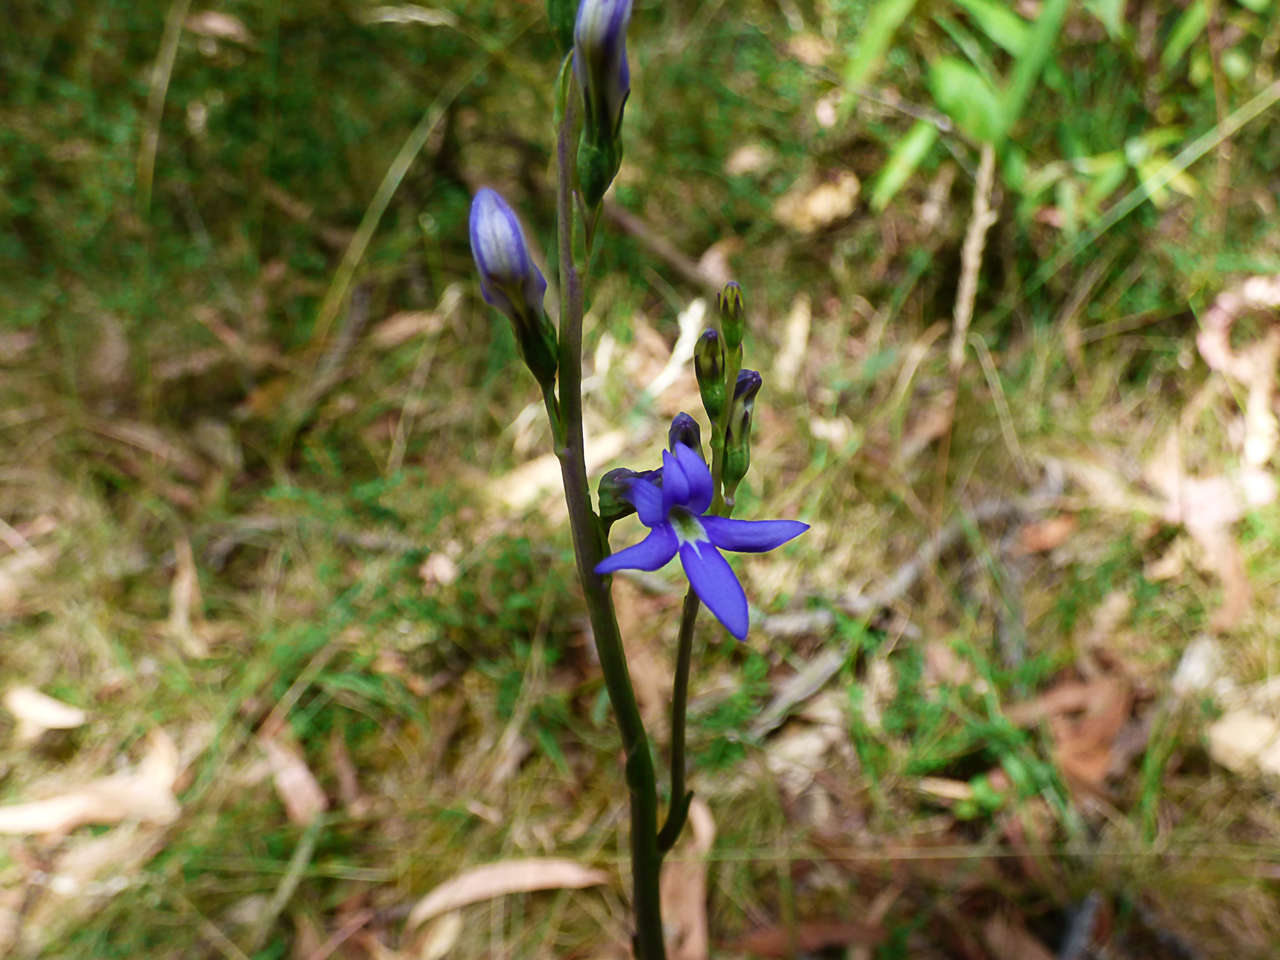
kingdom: Plantae
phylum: Tracheophyta
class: Magnoliopsida
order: Asterales
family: Campanulaceae
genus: Lobelia
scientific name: Lobelia gibbosa
